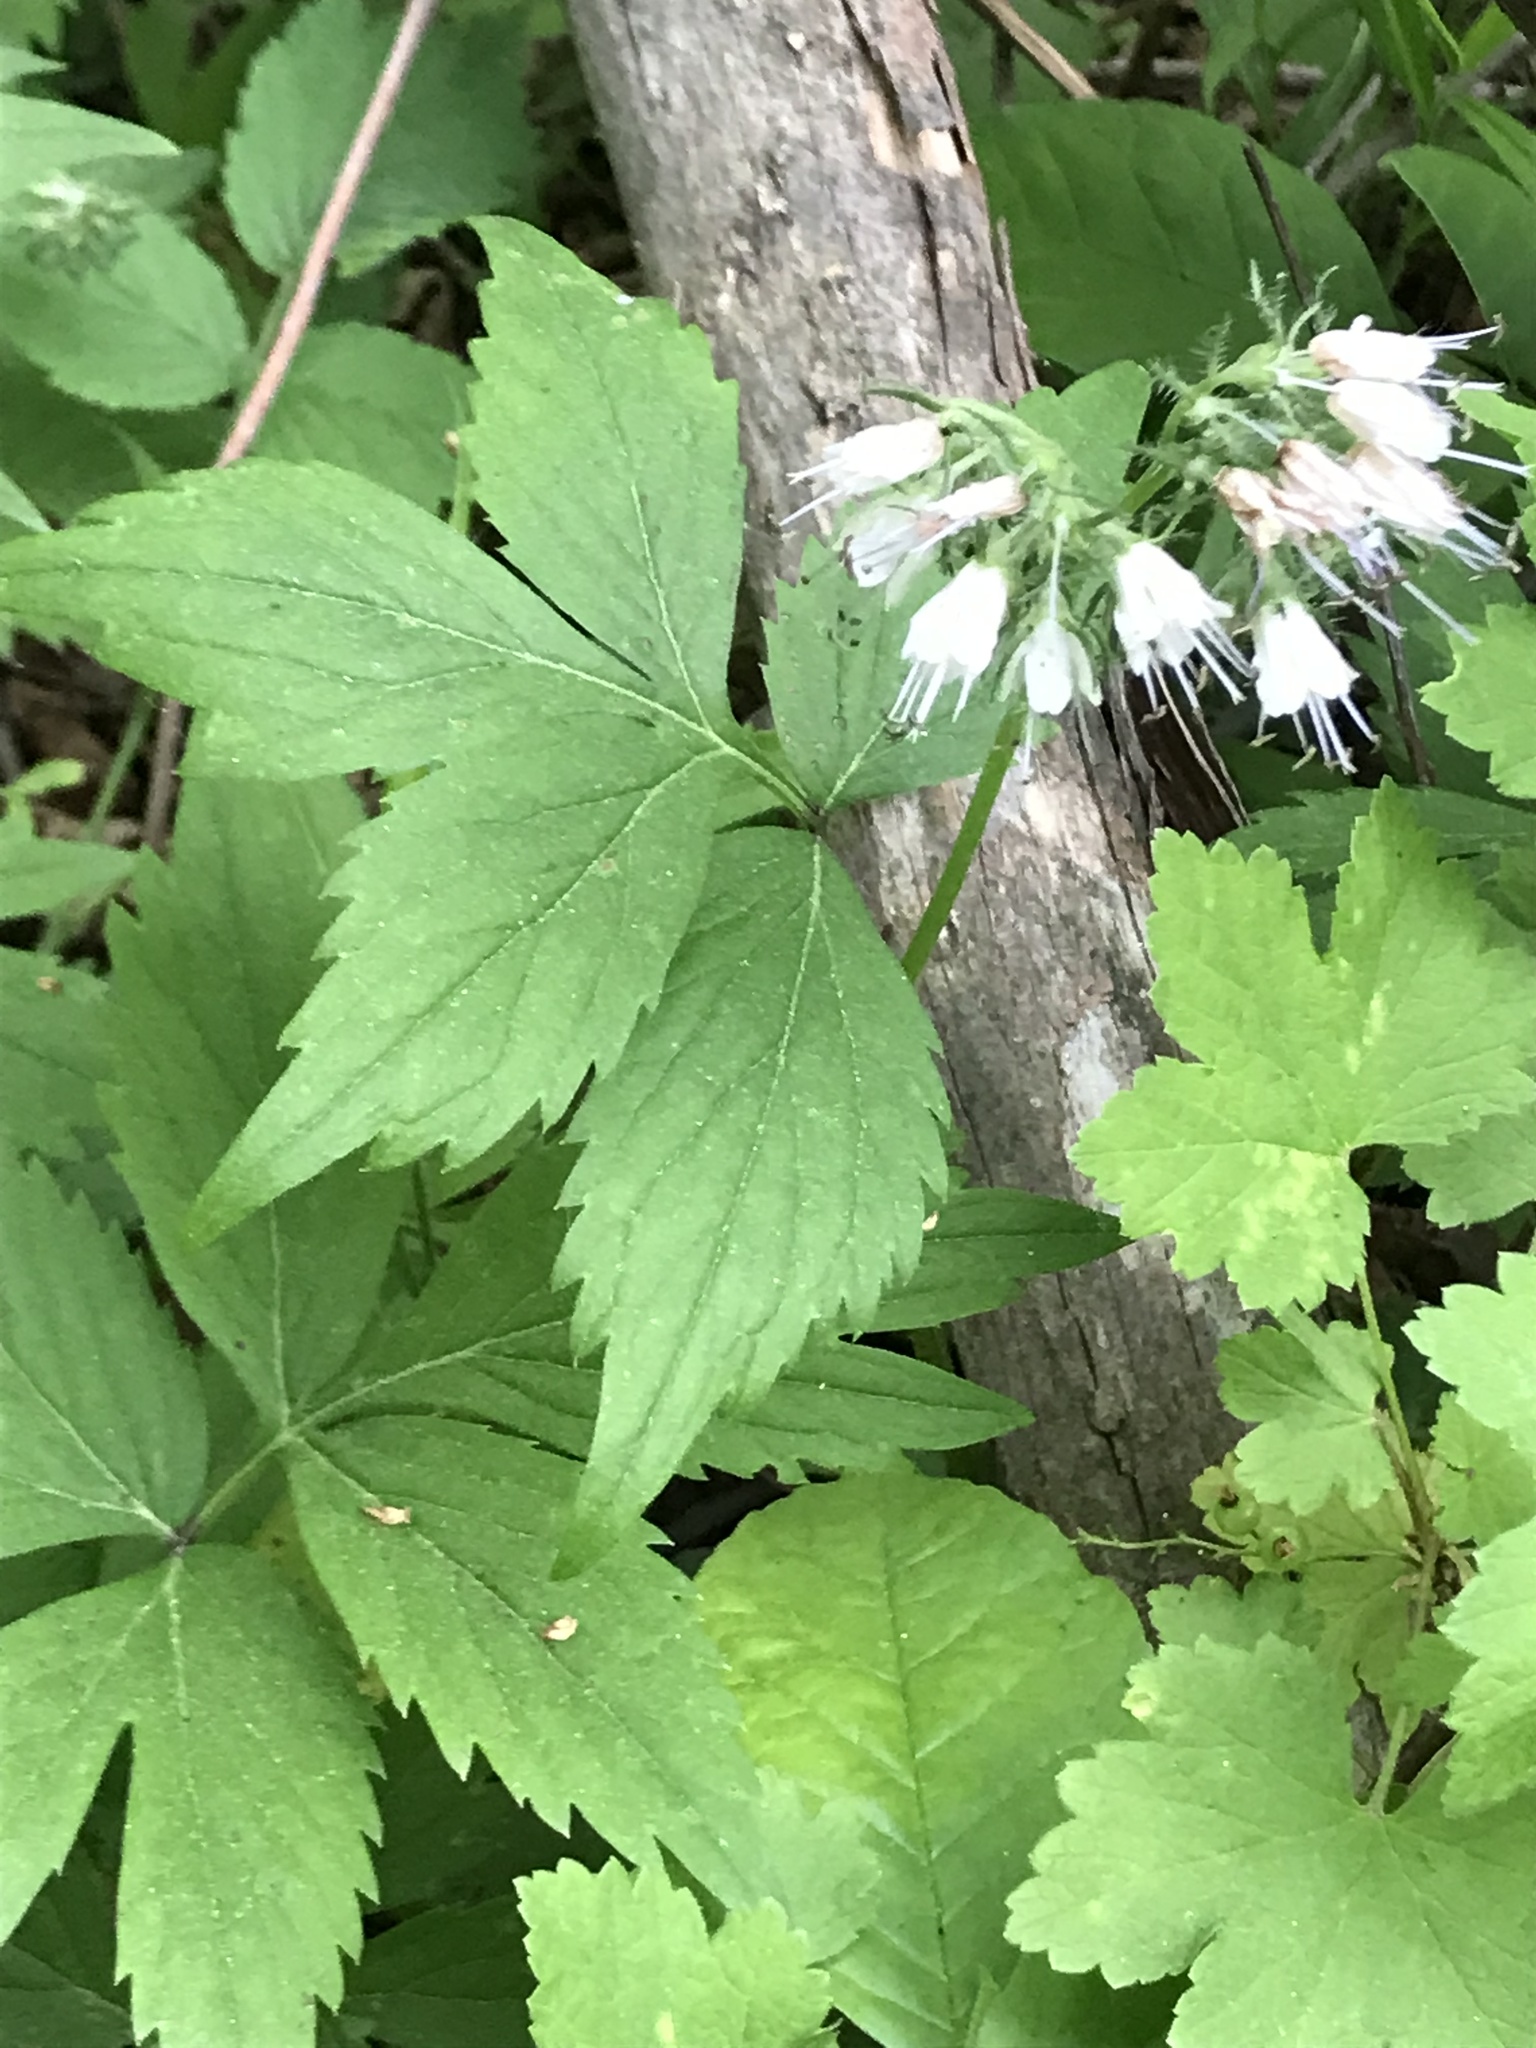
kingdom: Plantae
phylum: Tracheophyta
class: Magnoliopsida
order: Boraginales
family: Hydrophyllaceae
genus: Hydrophyllum
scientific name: Hydrophyllum virginianum
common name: Virginia waterleaf
